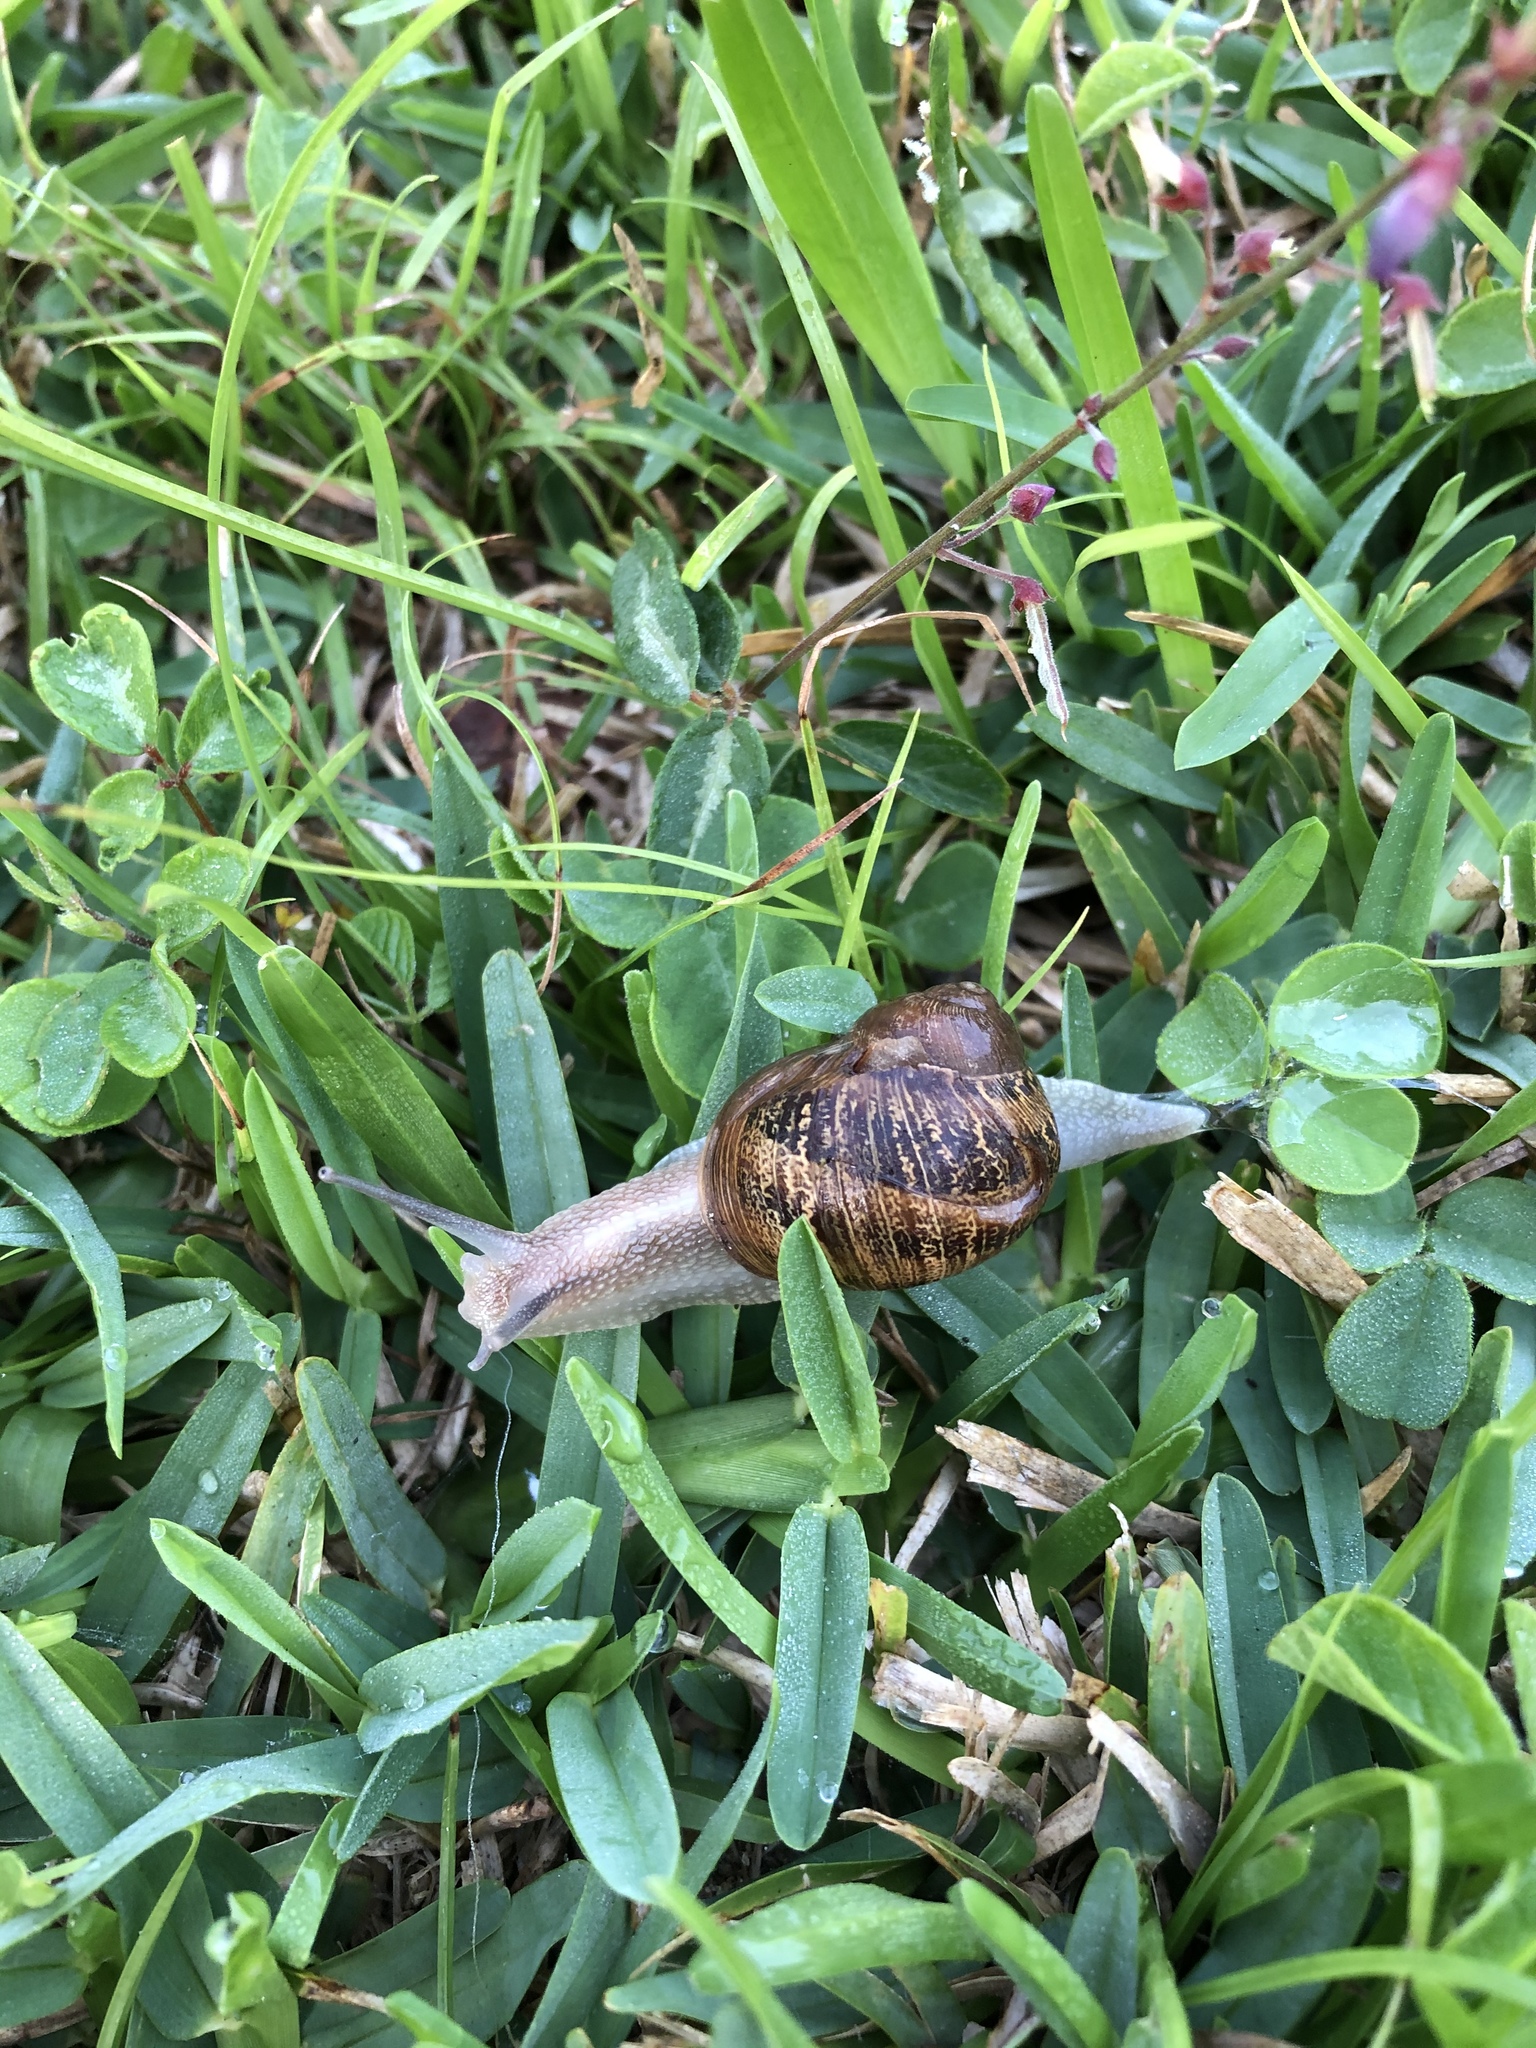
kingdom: Animalia
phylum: Mollusca
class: Gastropoda
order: Stylommatophora
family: Helicidae
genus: Cornu
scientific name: Cornu aspersum
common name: Brown garden snail
